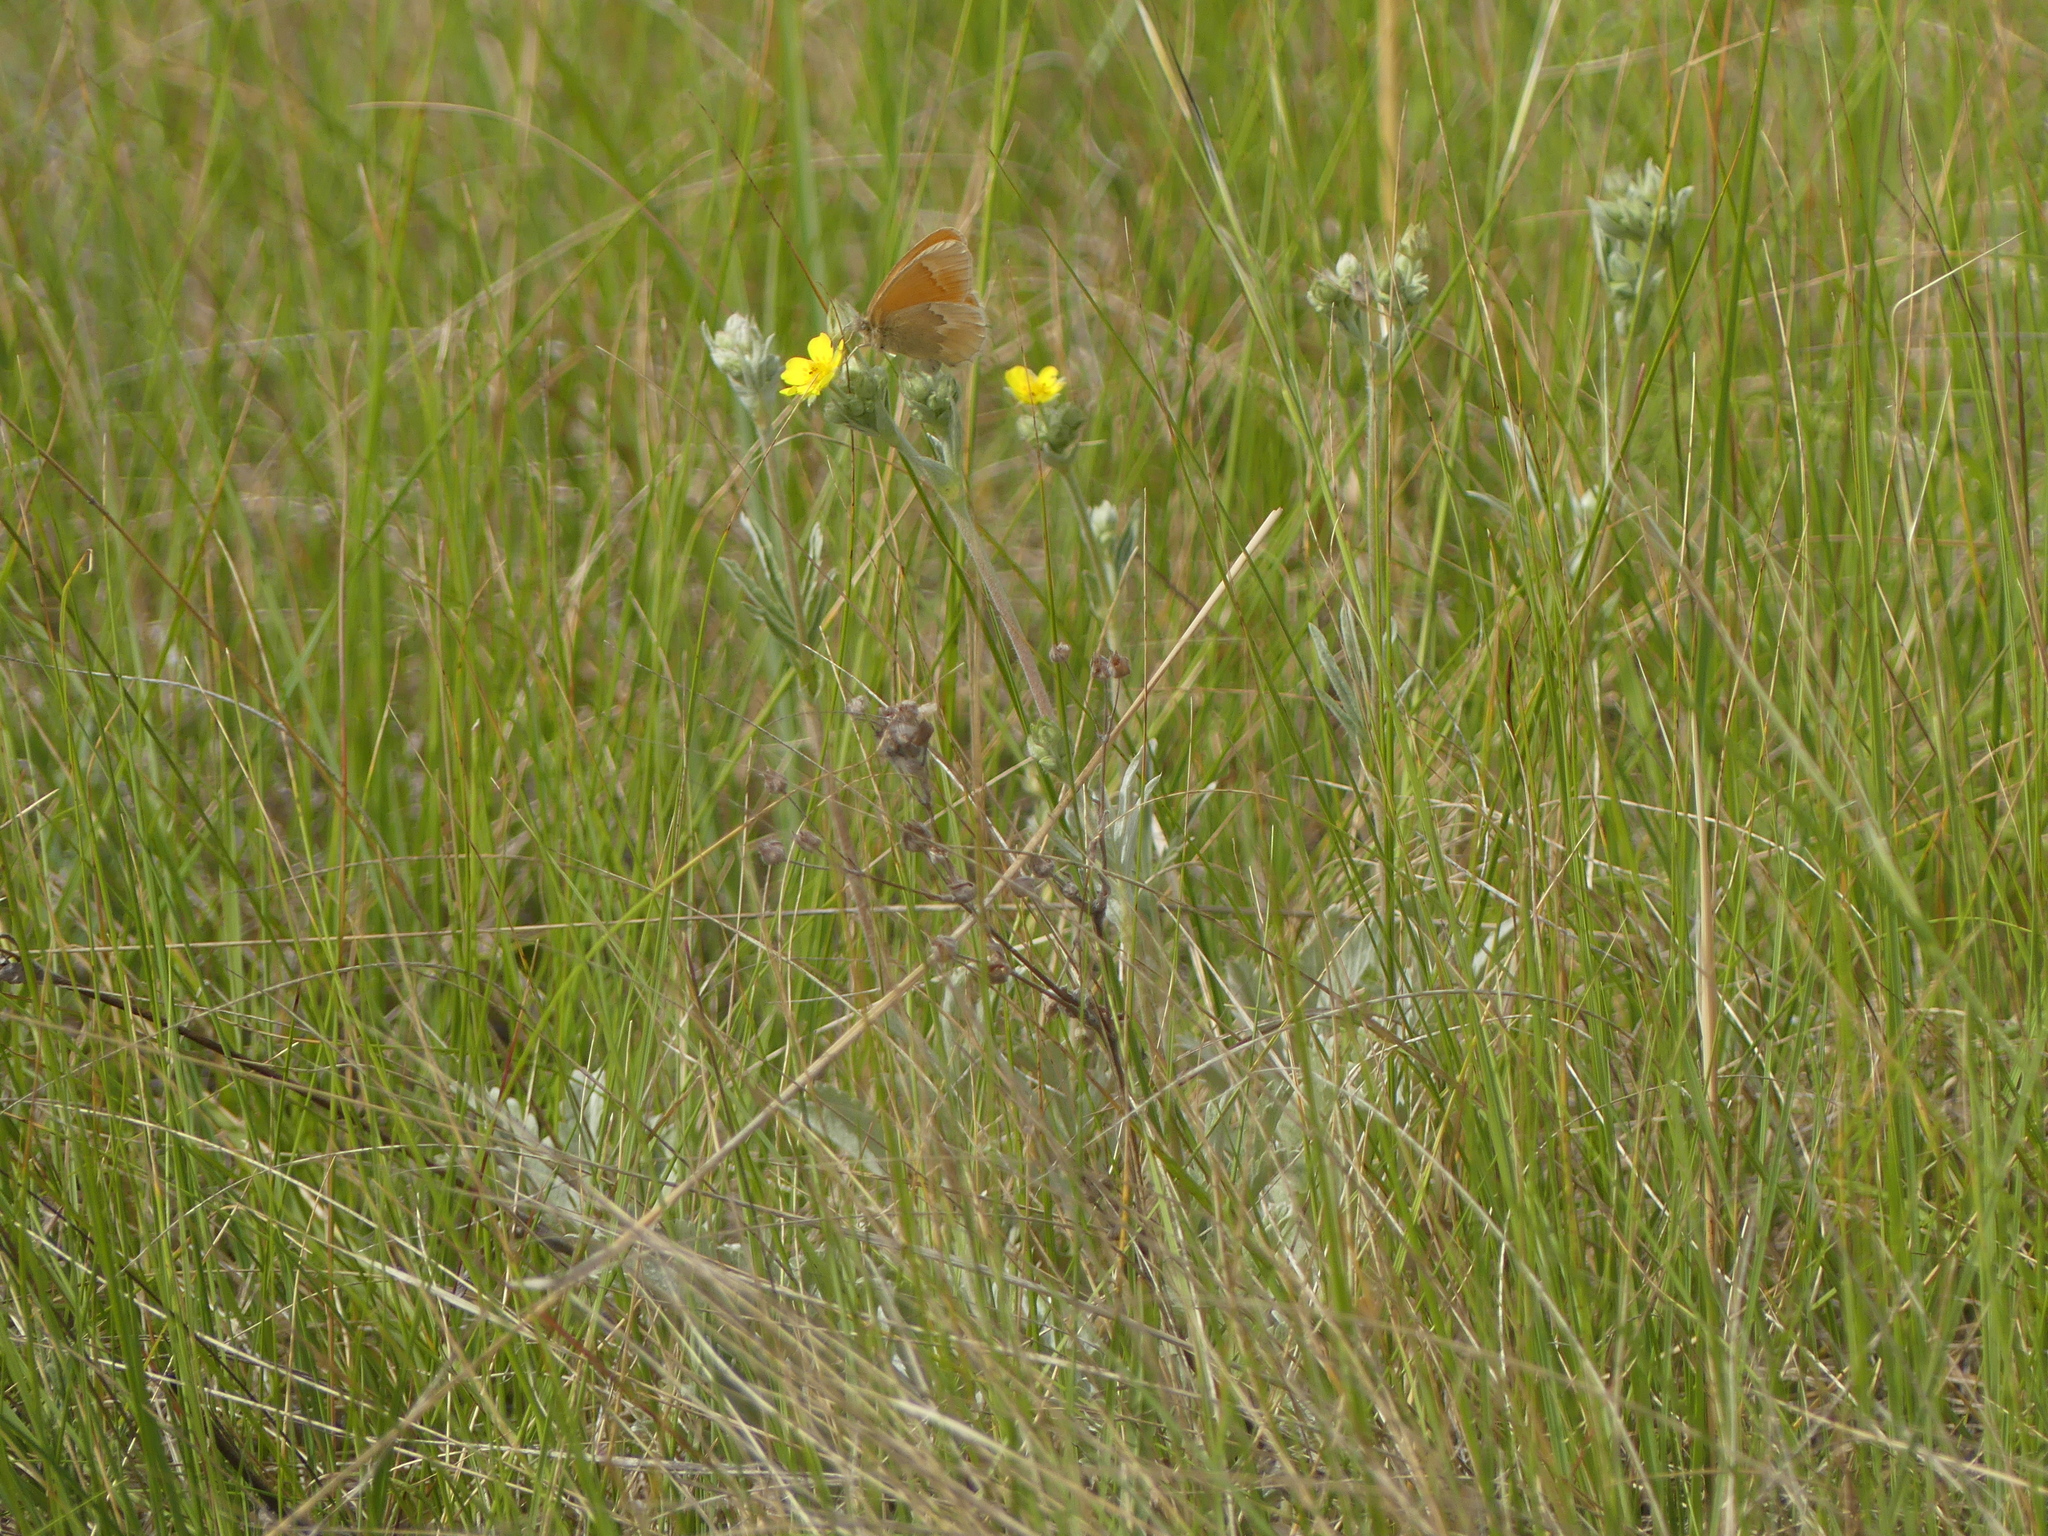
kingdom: Animalia
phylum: Arthropoda
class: Insecta
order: Lepidoptera
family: Nymphalidae
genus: Coenonympha
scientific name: Coenonympha california
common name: Common ringlet
